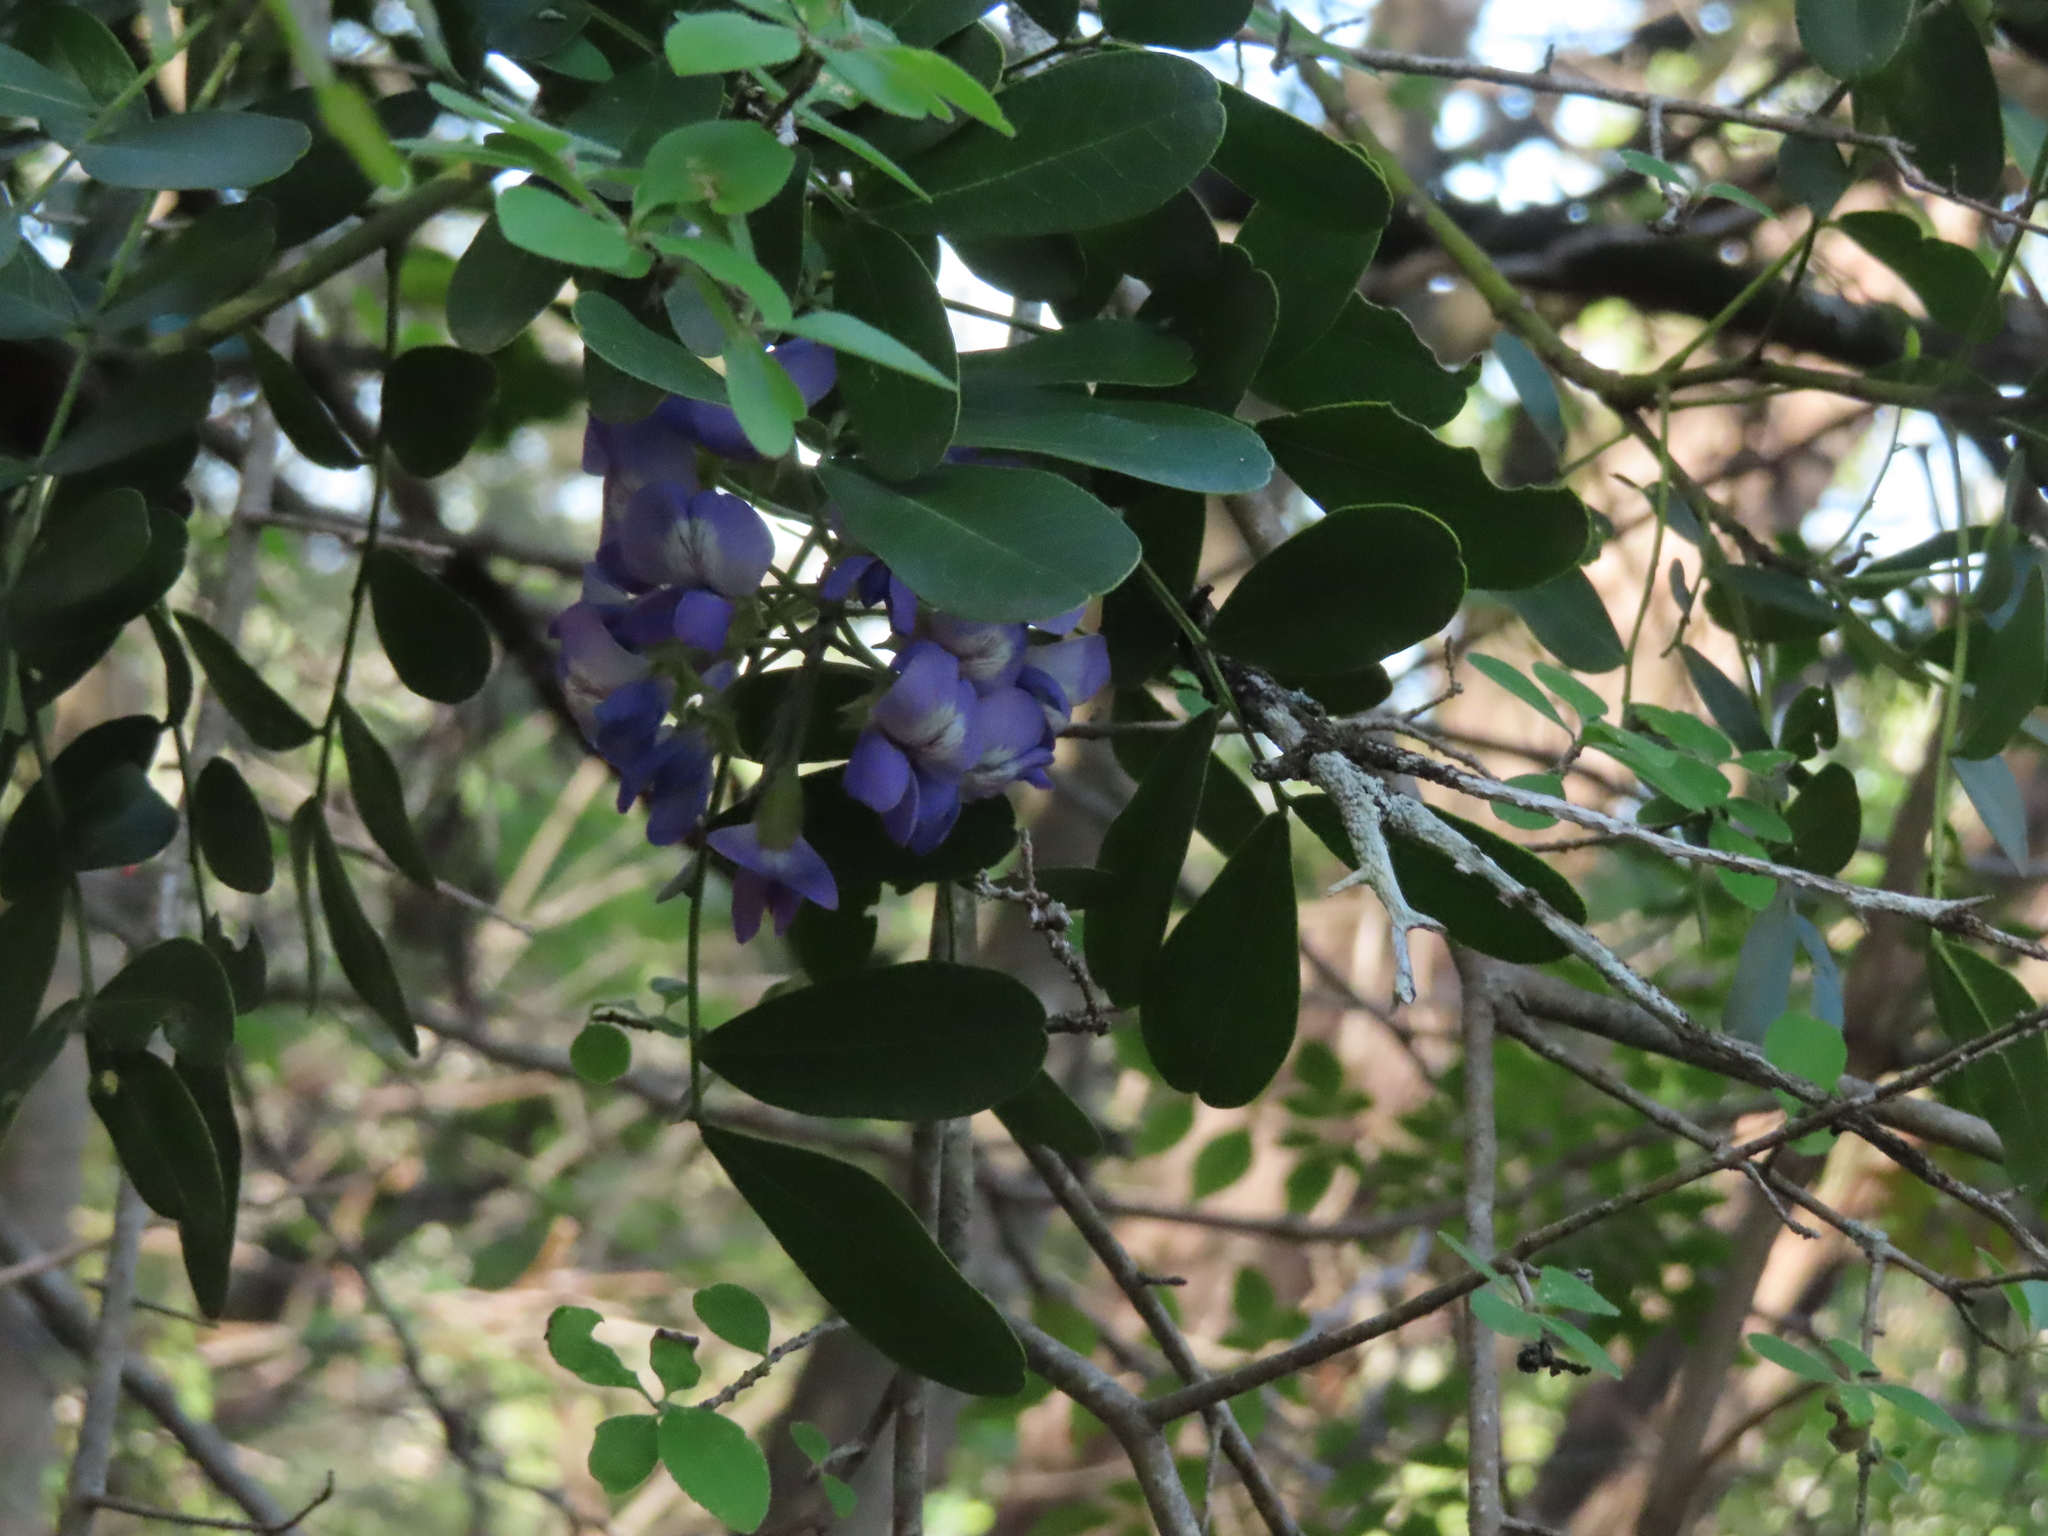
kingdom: Plantae
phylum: Tracheophyta
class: Magnoliopsida
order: Fabales
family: Fabaceae
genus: Dermatophyllum
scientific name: Dermatophyllum secundiflorum
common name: Texas-mountain-laurel
